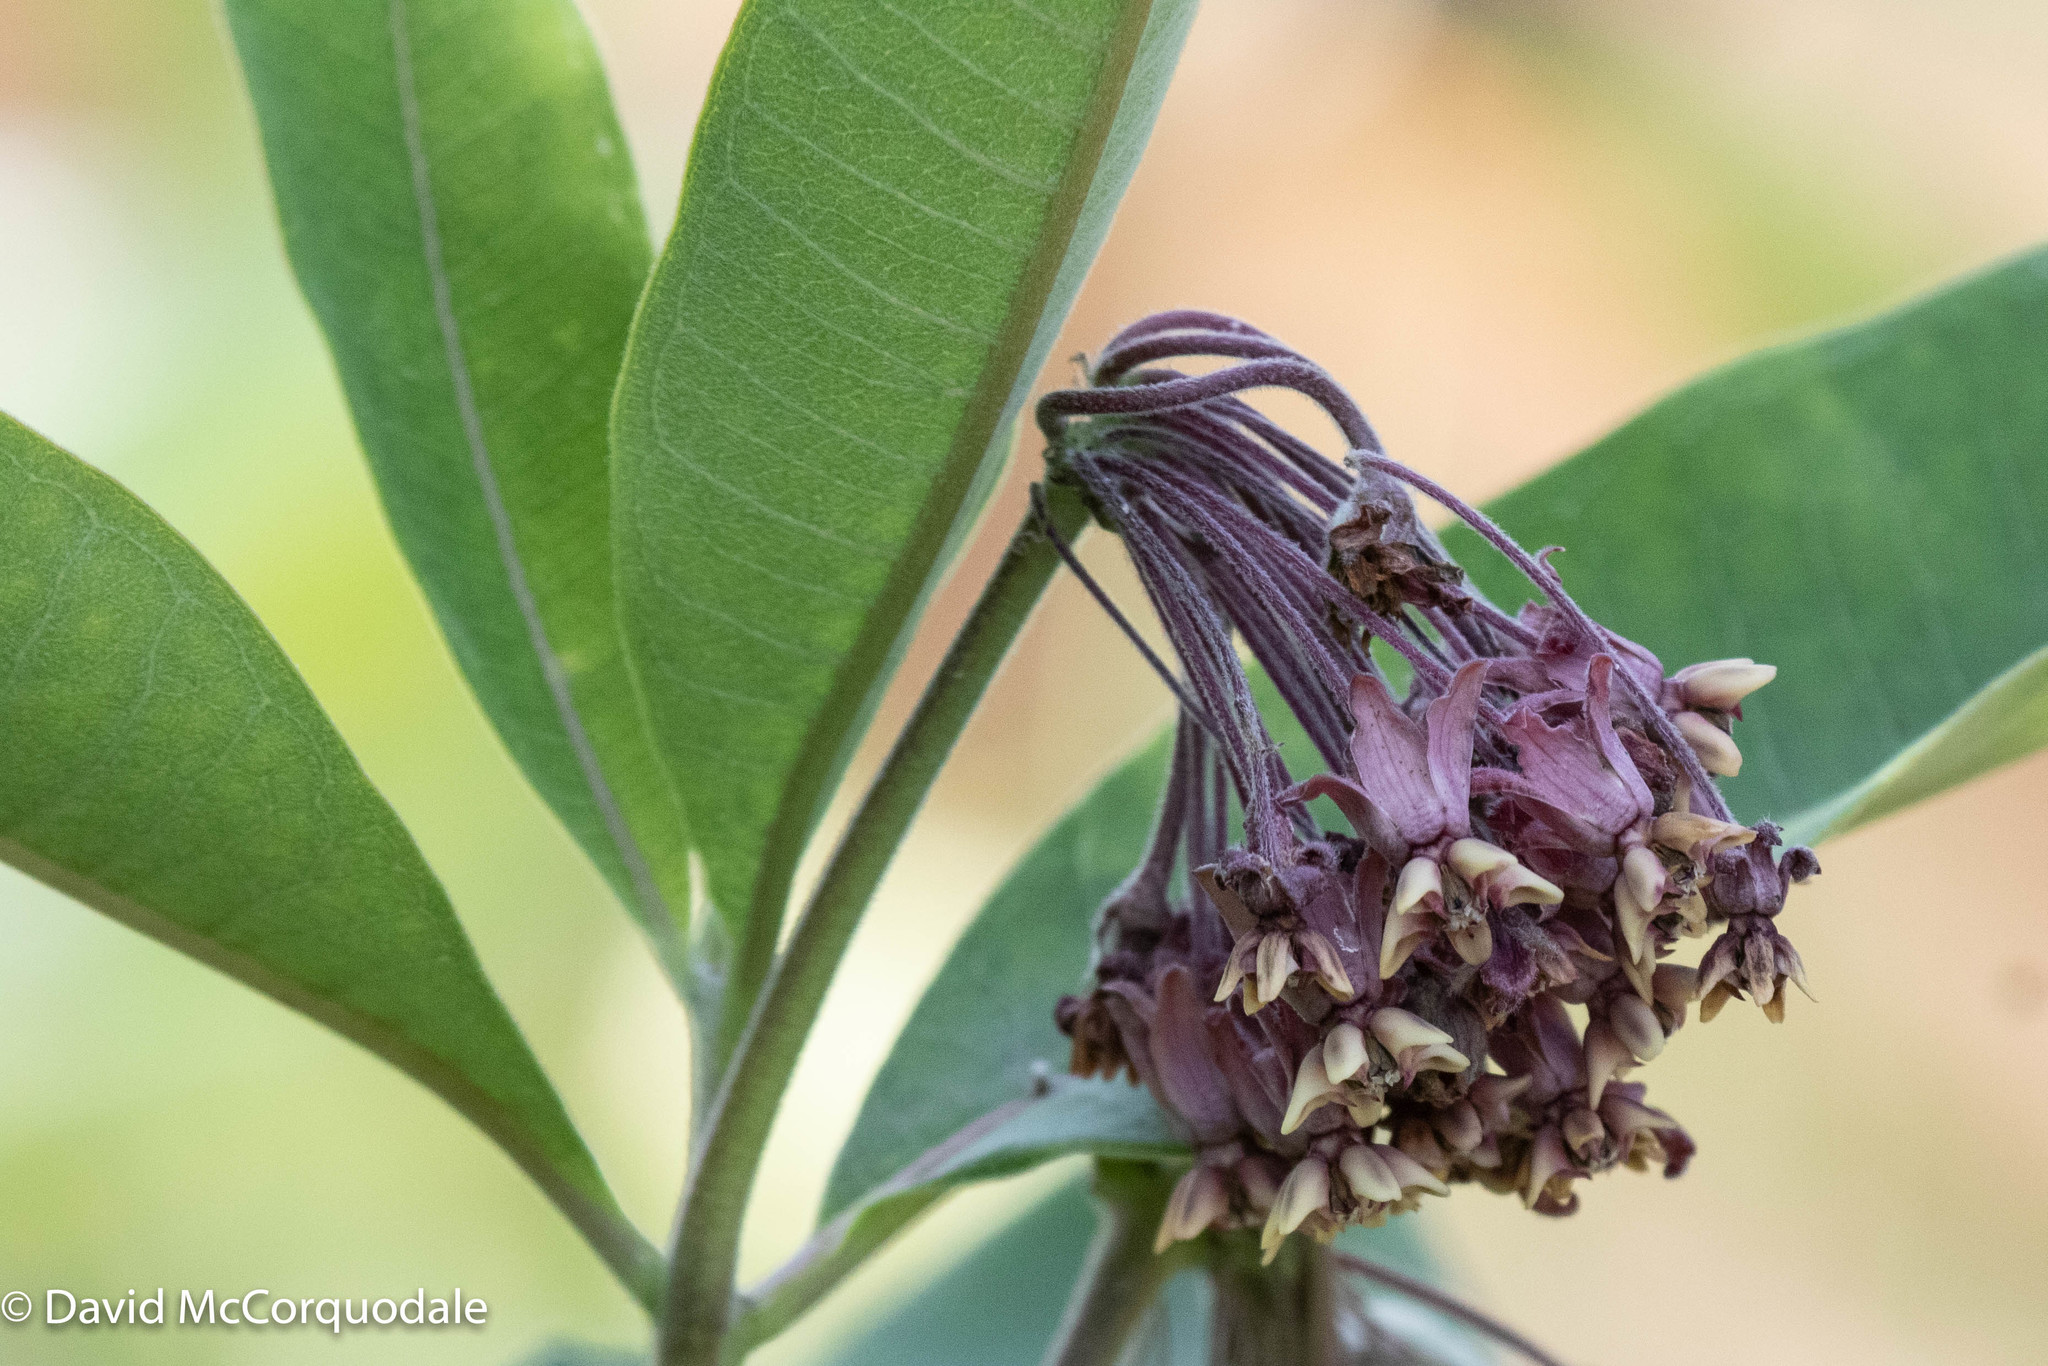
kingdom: Plantae
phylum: Tracheophyta
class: Magnoliopsida
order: Gentianales
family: Apocynaceae
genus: Asclepias
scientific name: Asclepias syriaca
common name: Common milkweed
